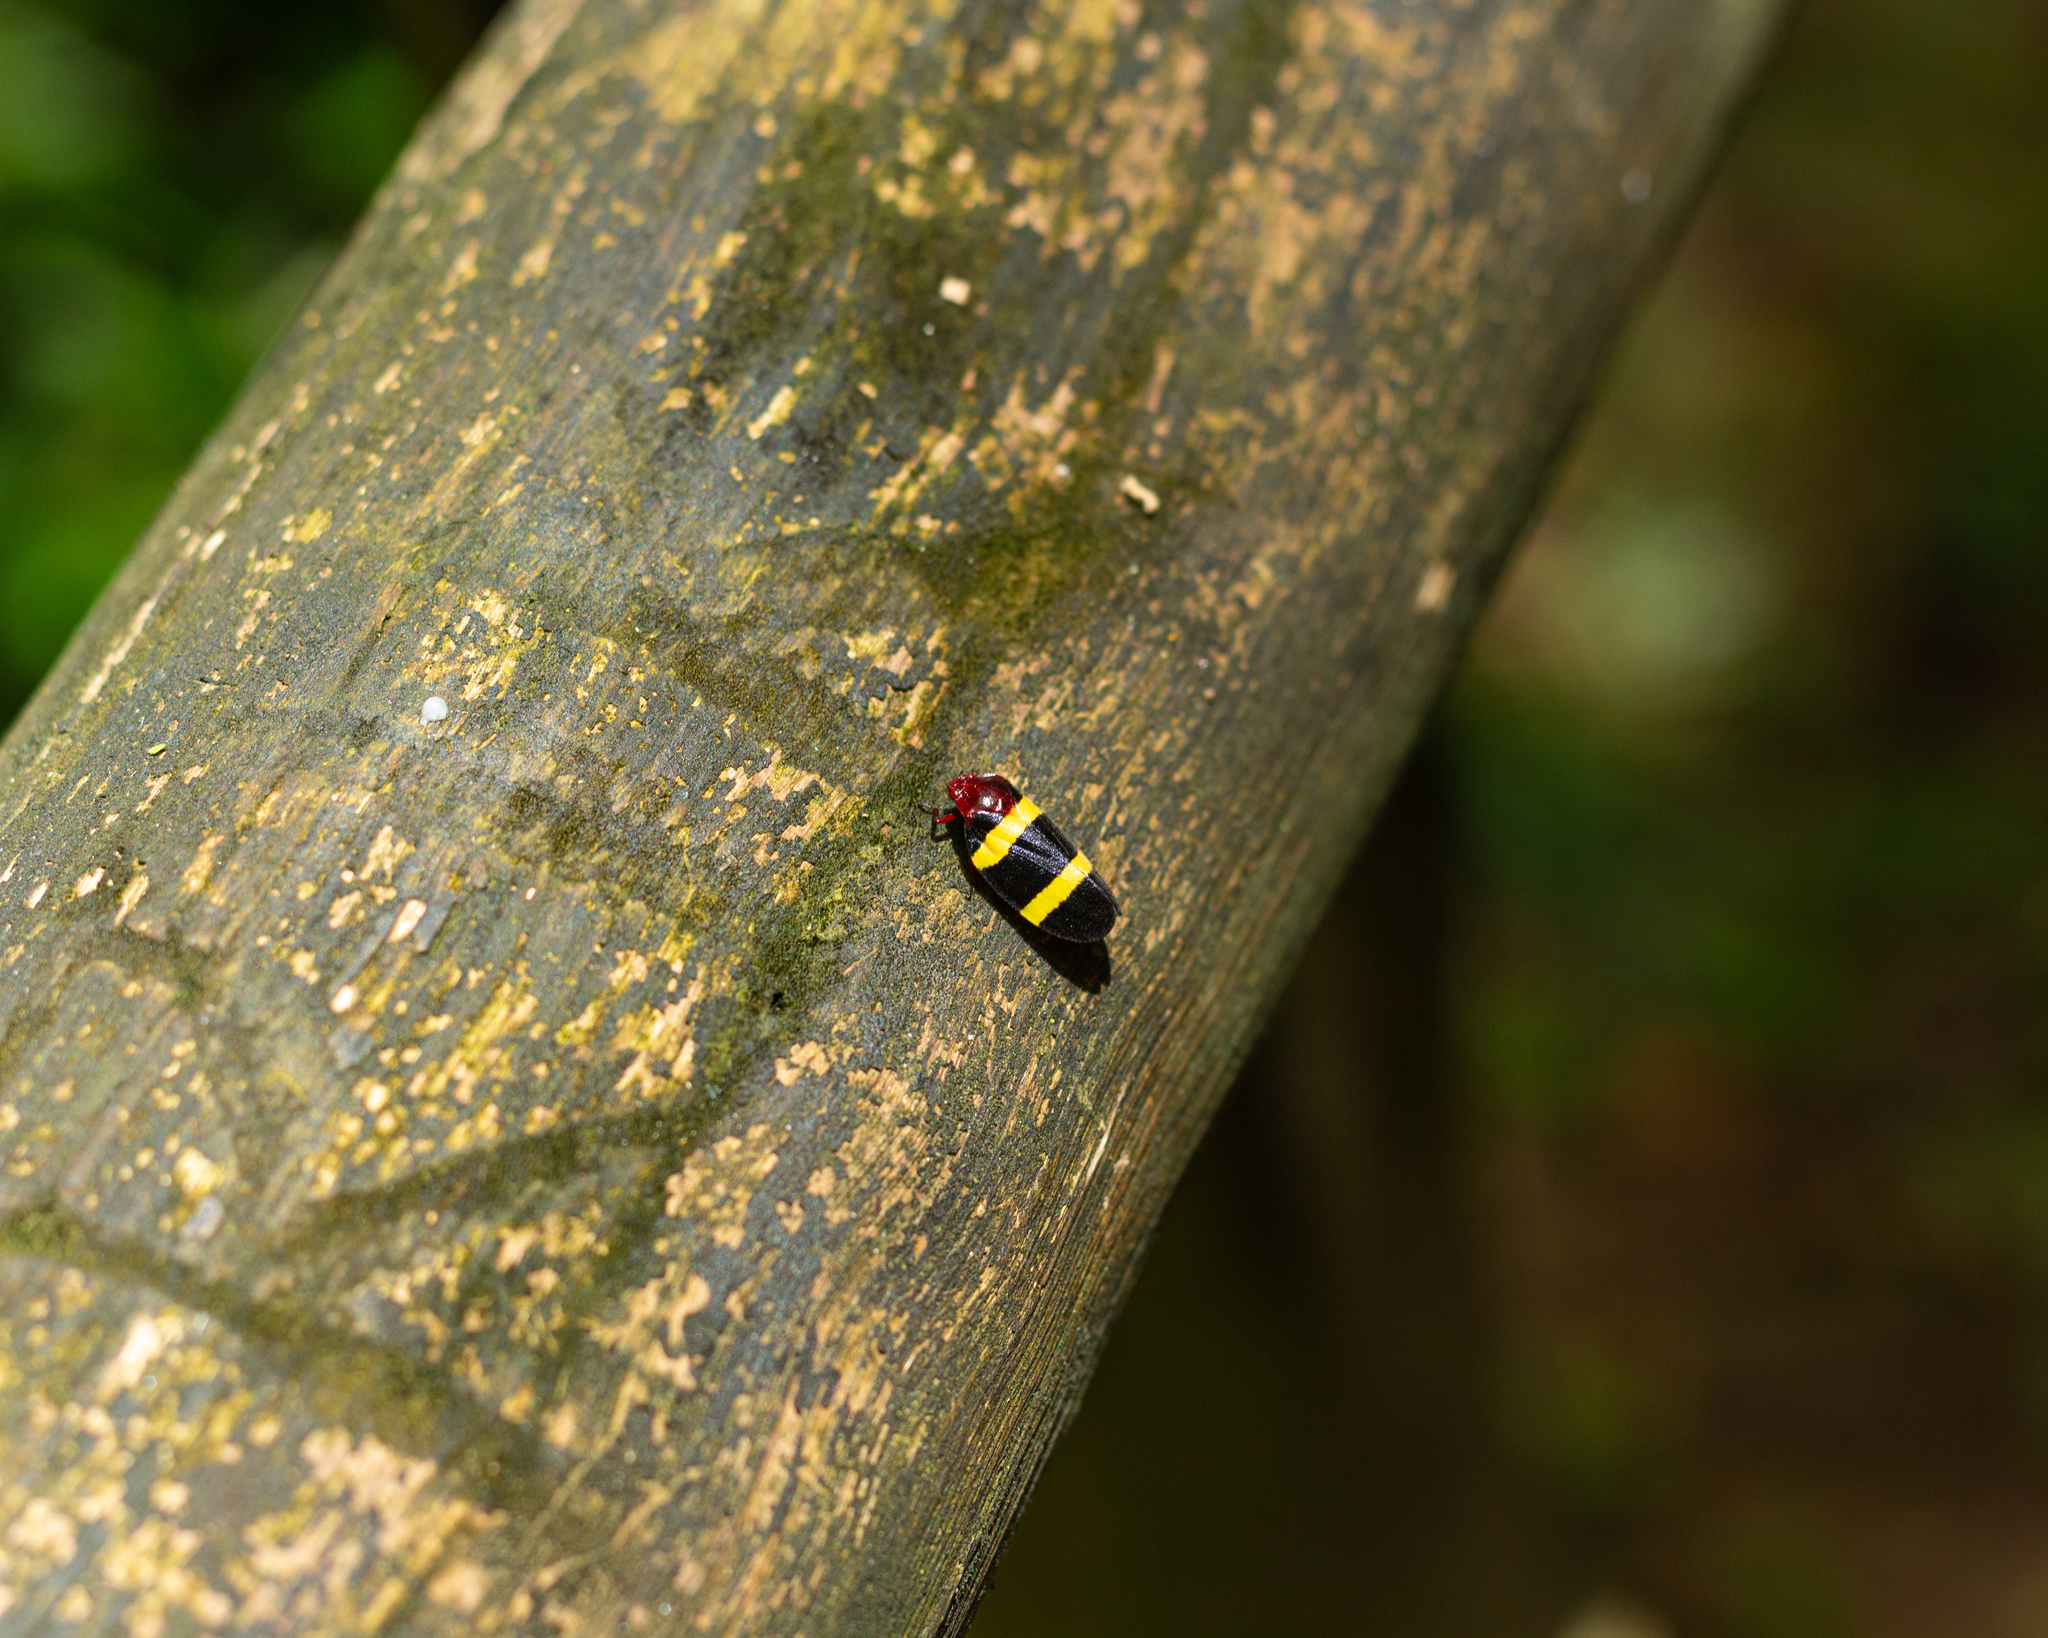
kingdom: Animalia
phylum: Arthropoda
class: Insecta
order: Hemiptera
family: Cercopidae
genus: Sphenorhina
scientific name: Sphenorhina rubra
